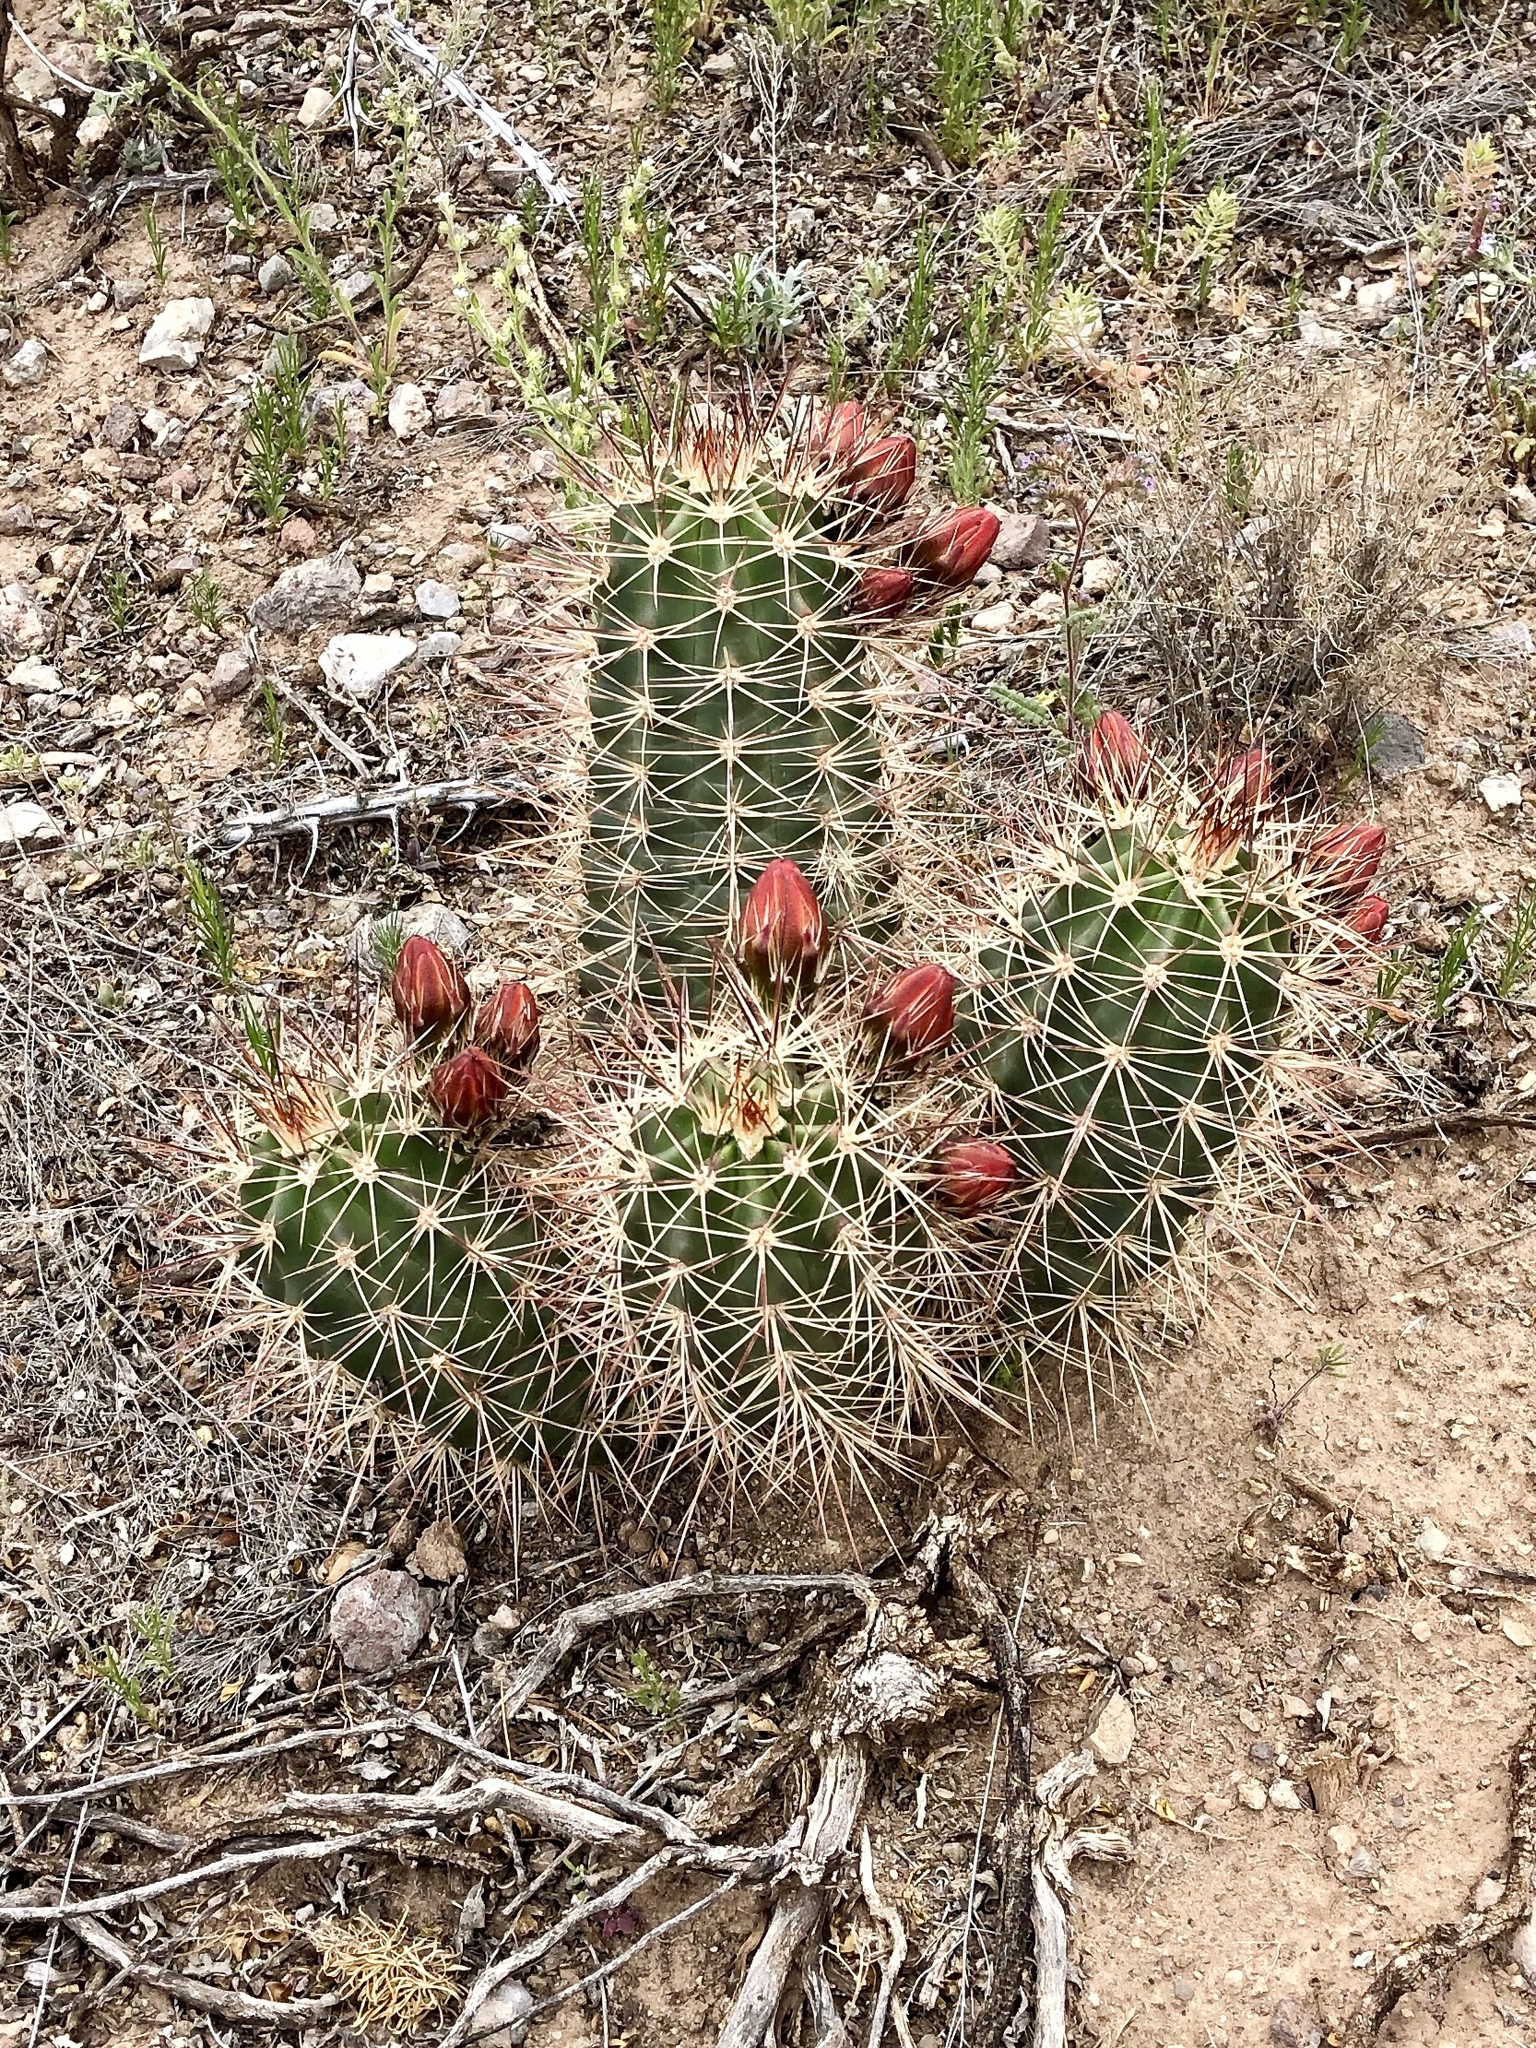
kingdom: Plantae
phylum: Tracheophyta
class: Magnoliopsida
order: Caryophyllales
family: Cactaceae
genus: Echinocereus
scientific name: Echinocereus coccineus
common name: Scarlet hedgehog cactus
